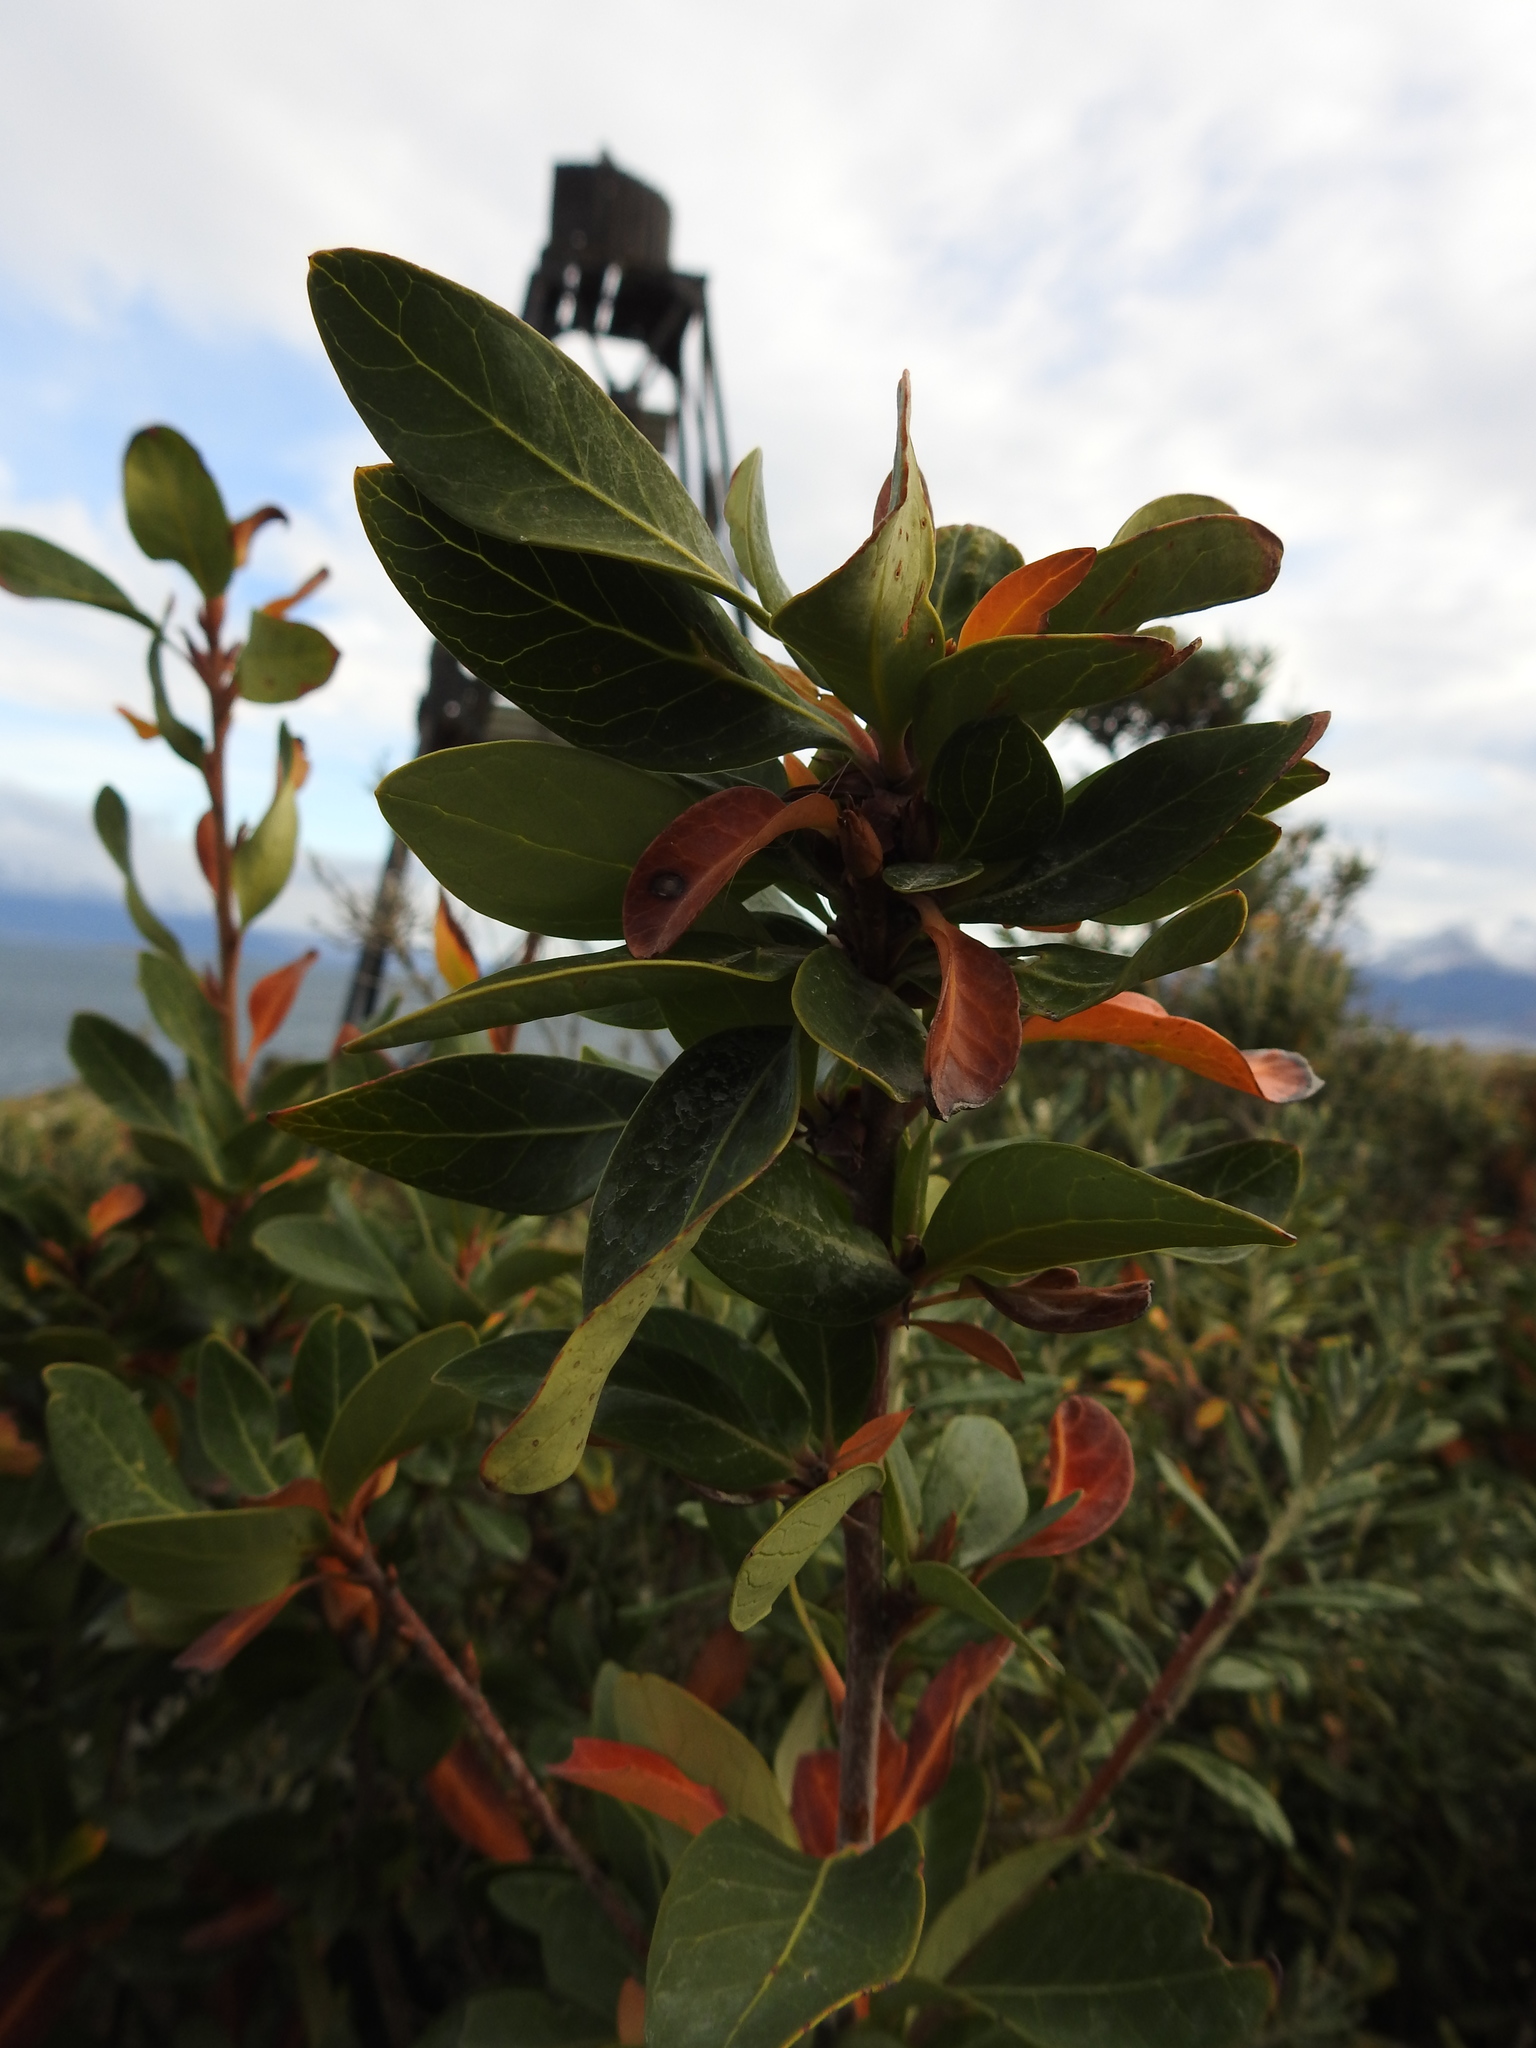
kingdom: Plantae
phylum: Tracheophyta
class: Magnoliopsida
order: Proteales
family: Proteaceae
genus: Embothrium
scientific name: Embothrium coccineum
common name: Chilean firebush
